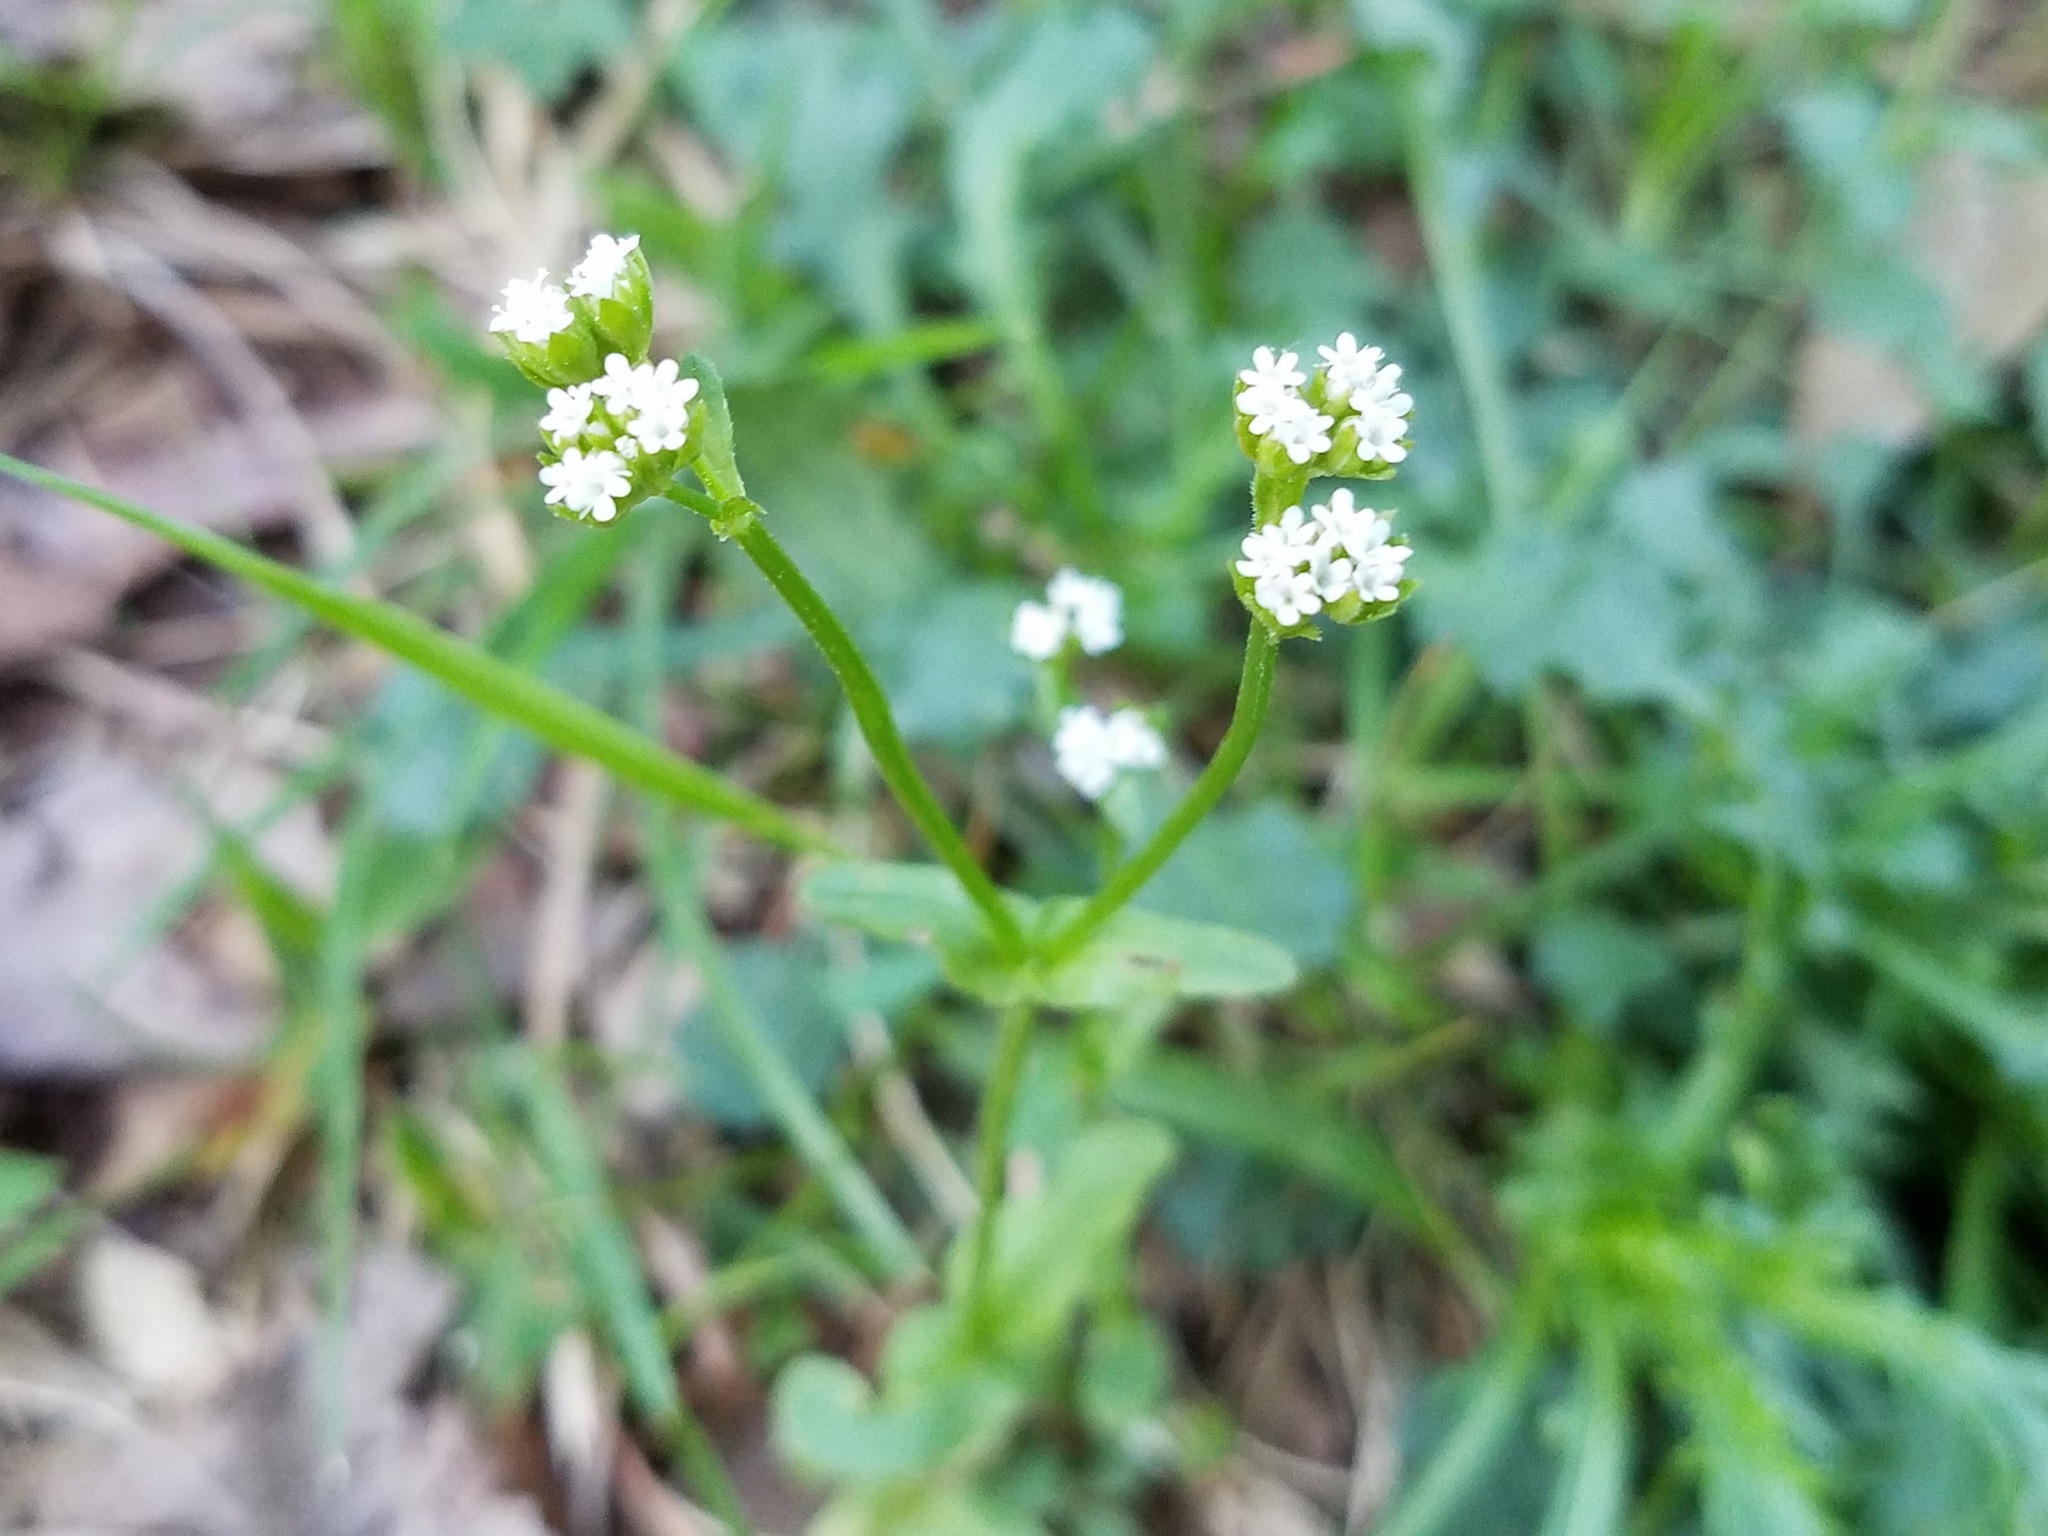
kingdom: Plantae
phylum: Tracheophyta
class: Magnoliopsida
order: Dipsacales
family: Caprifoliaceae
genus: Valerianella
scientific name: Valerianella radiata
